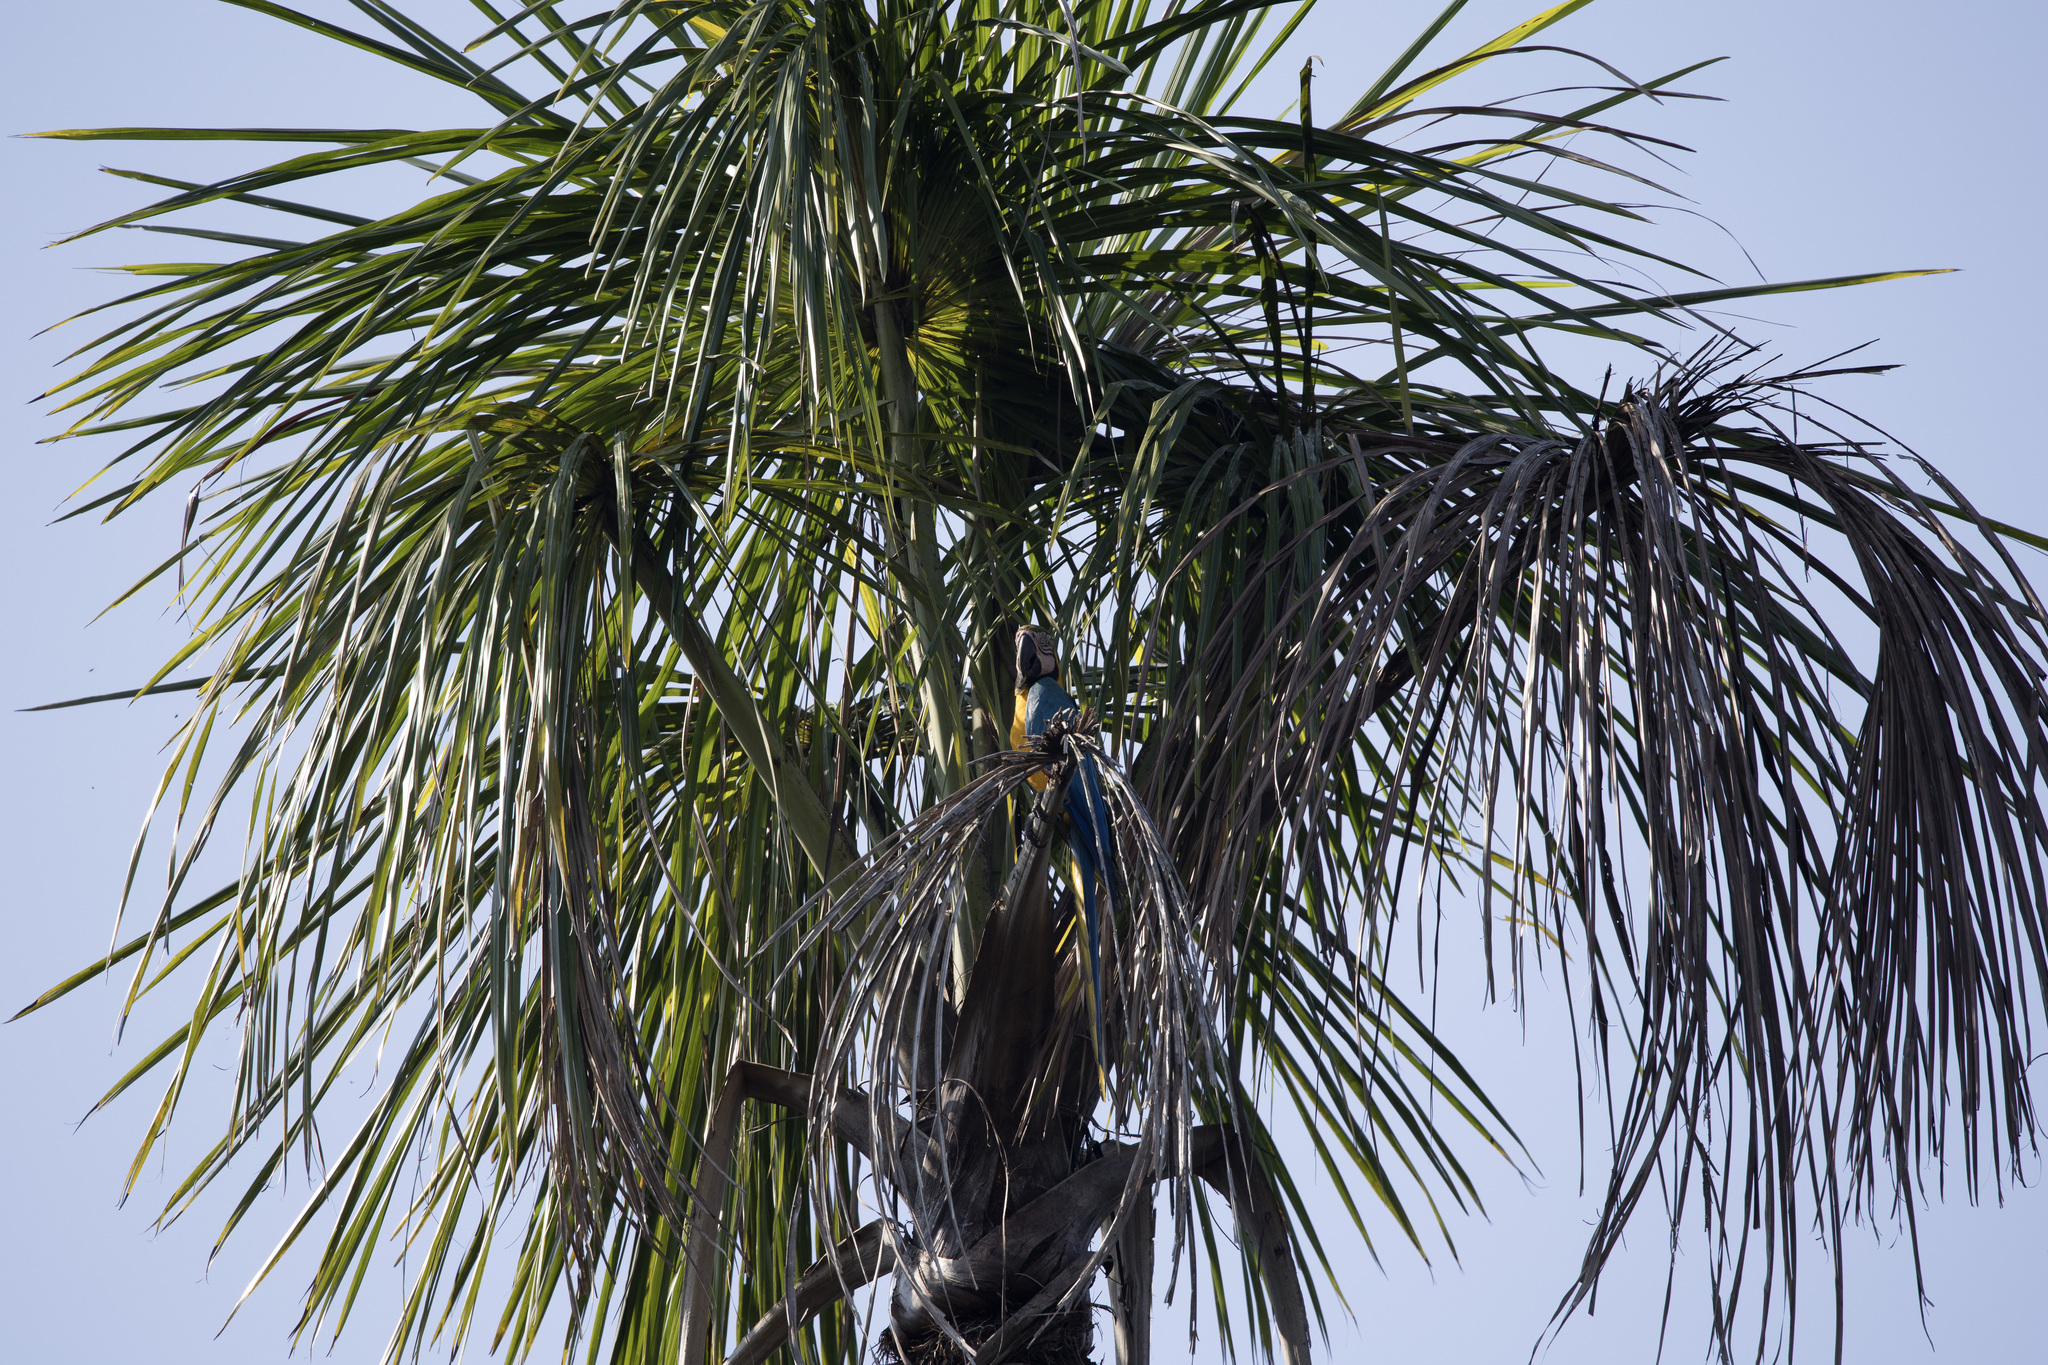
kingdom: Animalia
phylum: Chordata
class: Aves
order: Psittaciformes
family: Psittacidae
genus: Ara
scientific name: Ara ararauna
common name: Blue-and-yellow macaw
